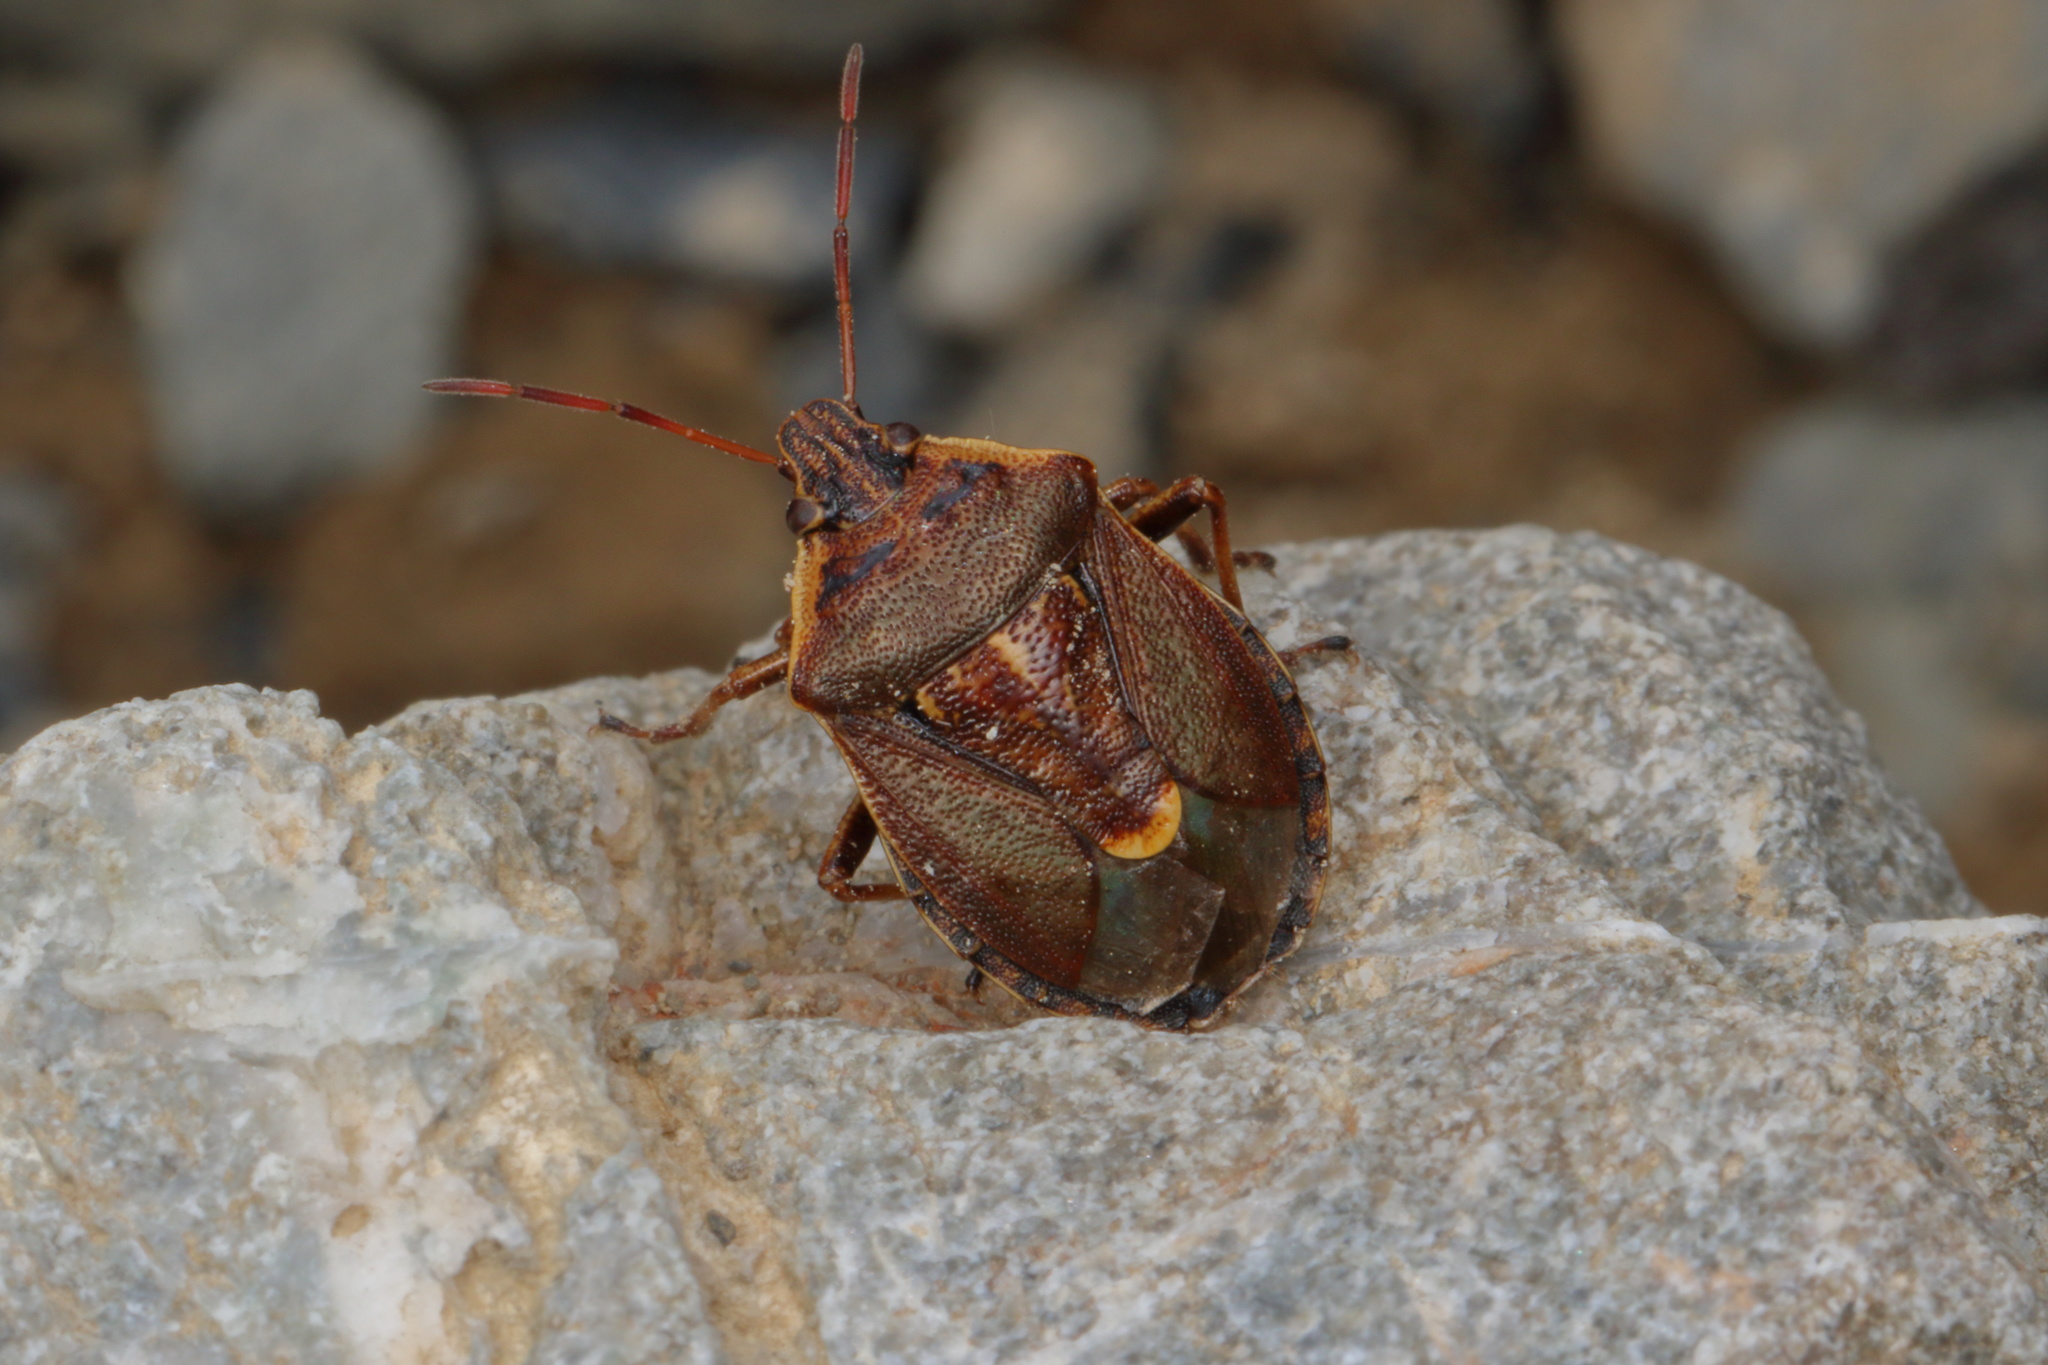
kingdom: Animalia
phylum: Arthropoda
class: Insecta
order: Hemiptera
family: Pentatomidae
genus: Cermatulus
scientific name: Cermatulus nasalis
